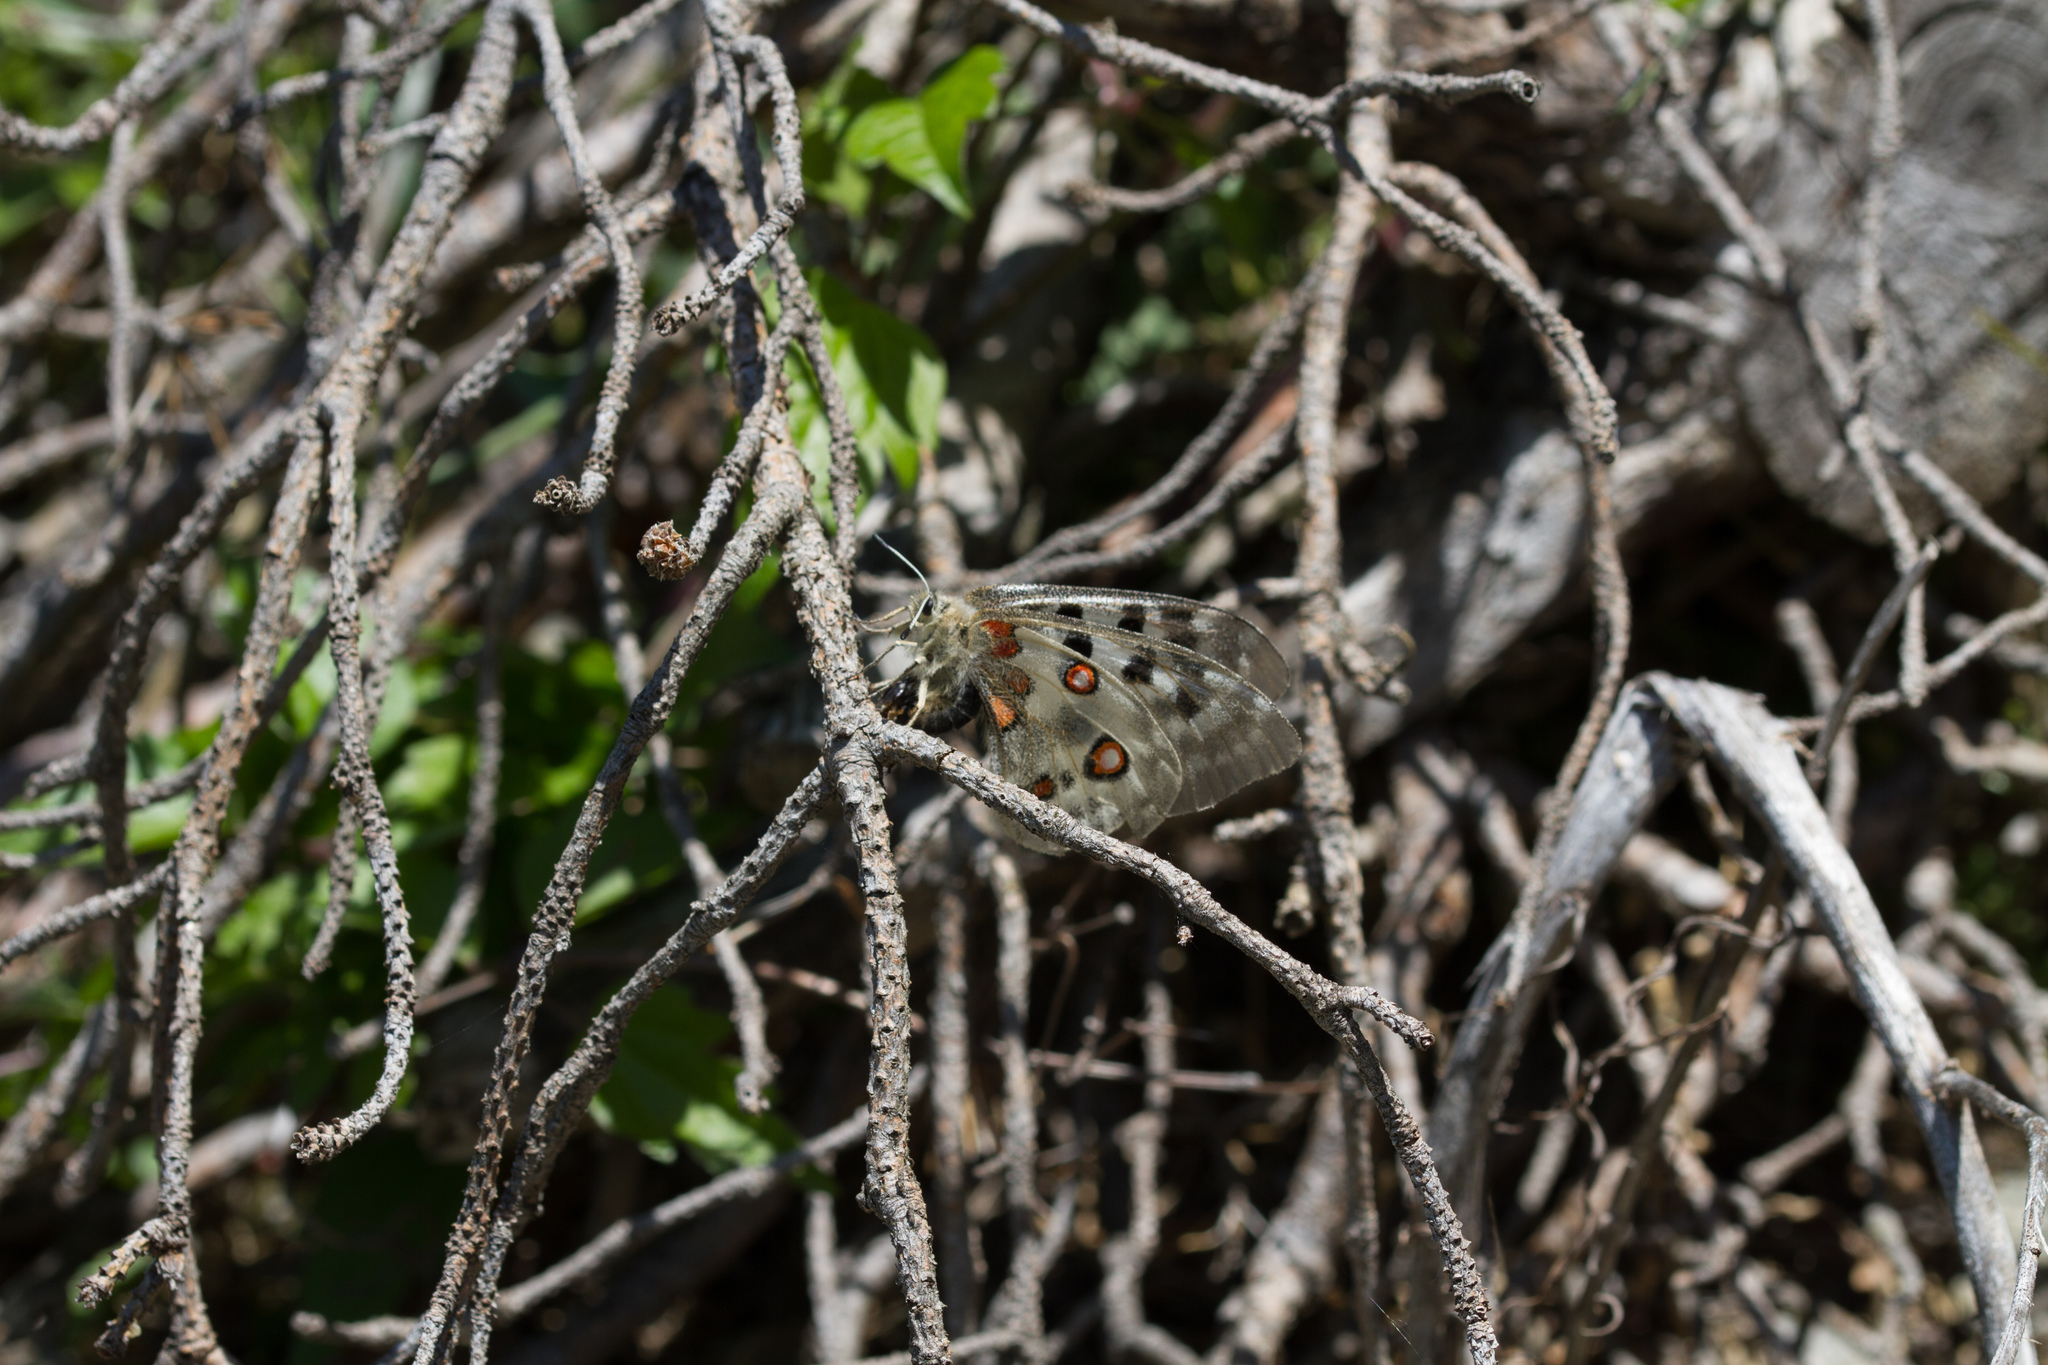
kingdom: Animalia
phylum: Arthropoda
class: Insecta
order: Lepidoptera
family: Papilionidae
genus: Parnassius
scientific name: Parnassius apollo
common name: Apollo
